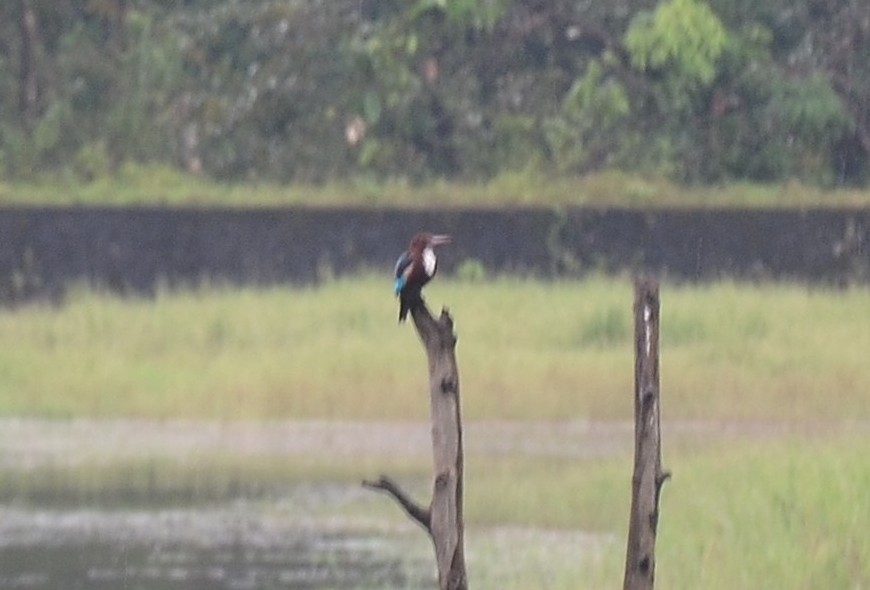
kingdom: Animalia
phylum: Chordata
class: Aves
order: Coraciiformes
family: Alcedinidae
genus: Halcyon
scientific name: Halcyon smyrnensis
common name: White-throated kingfisher
